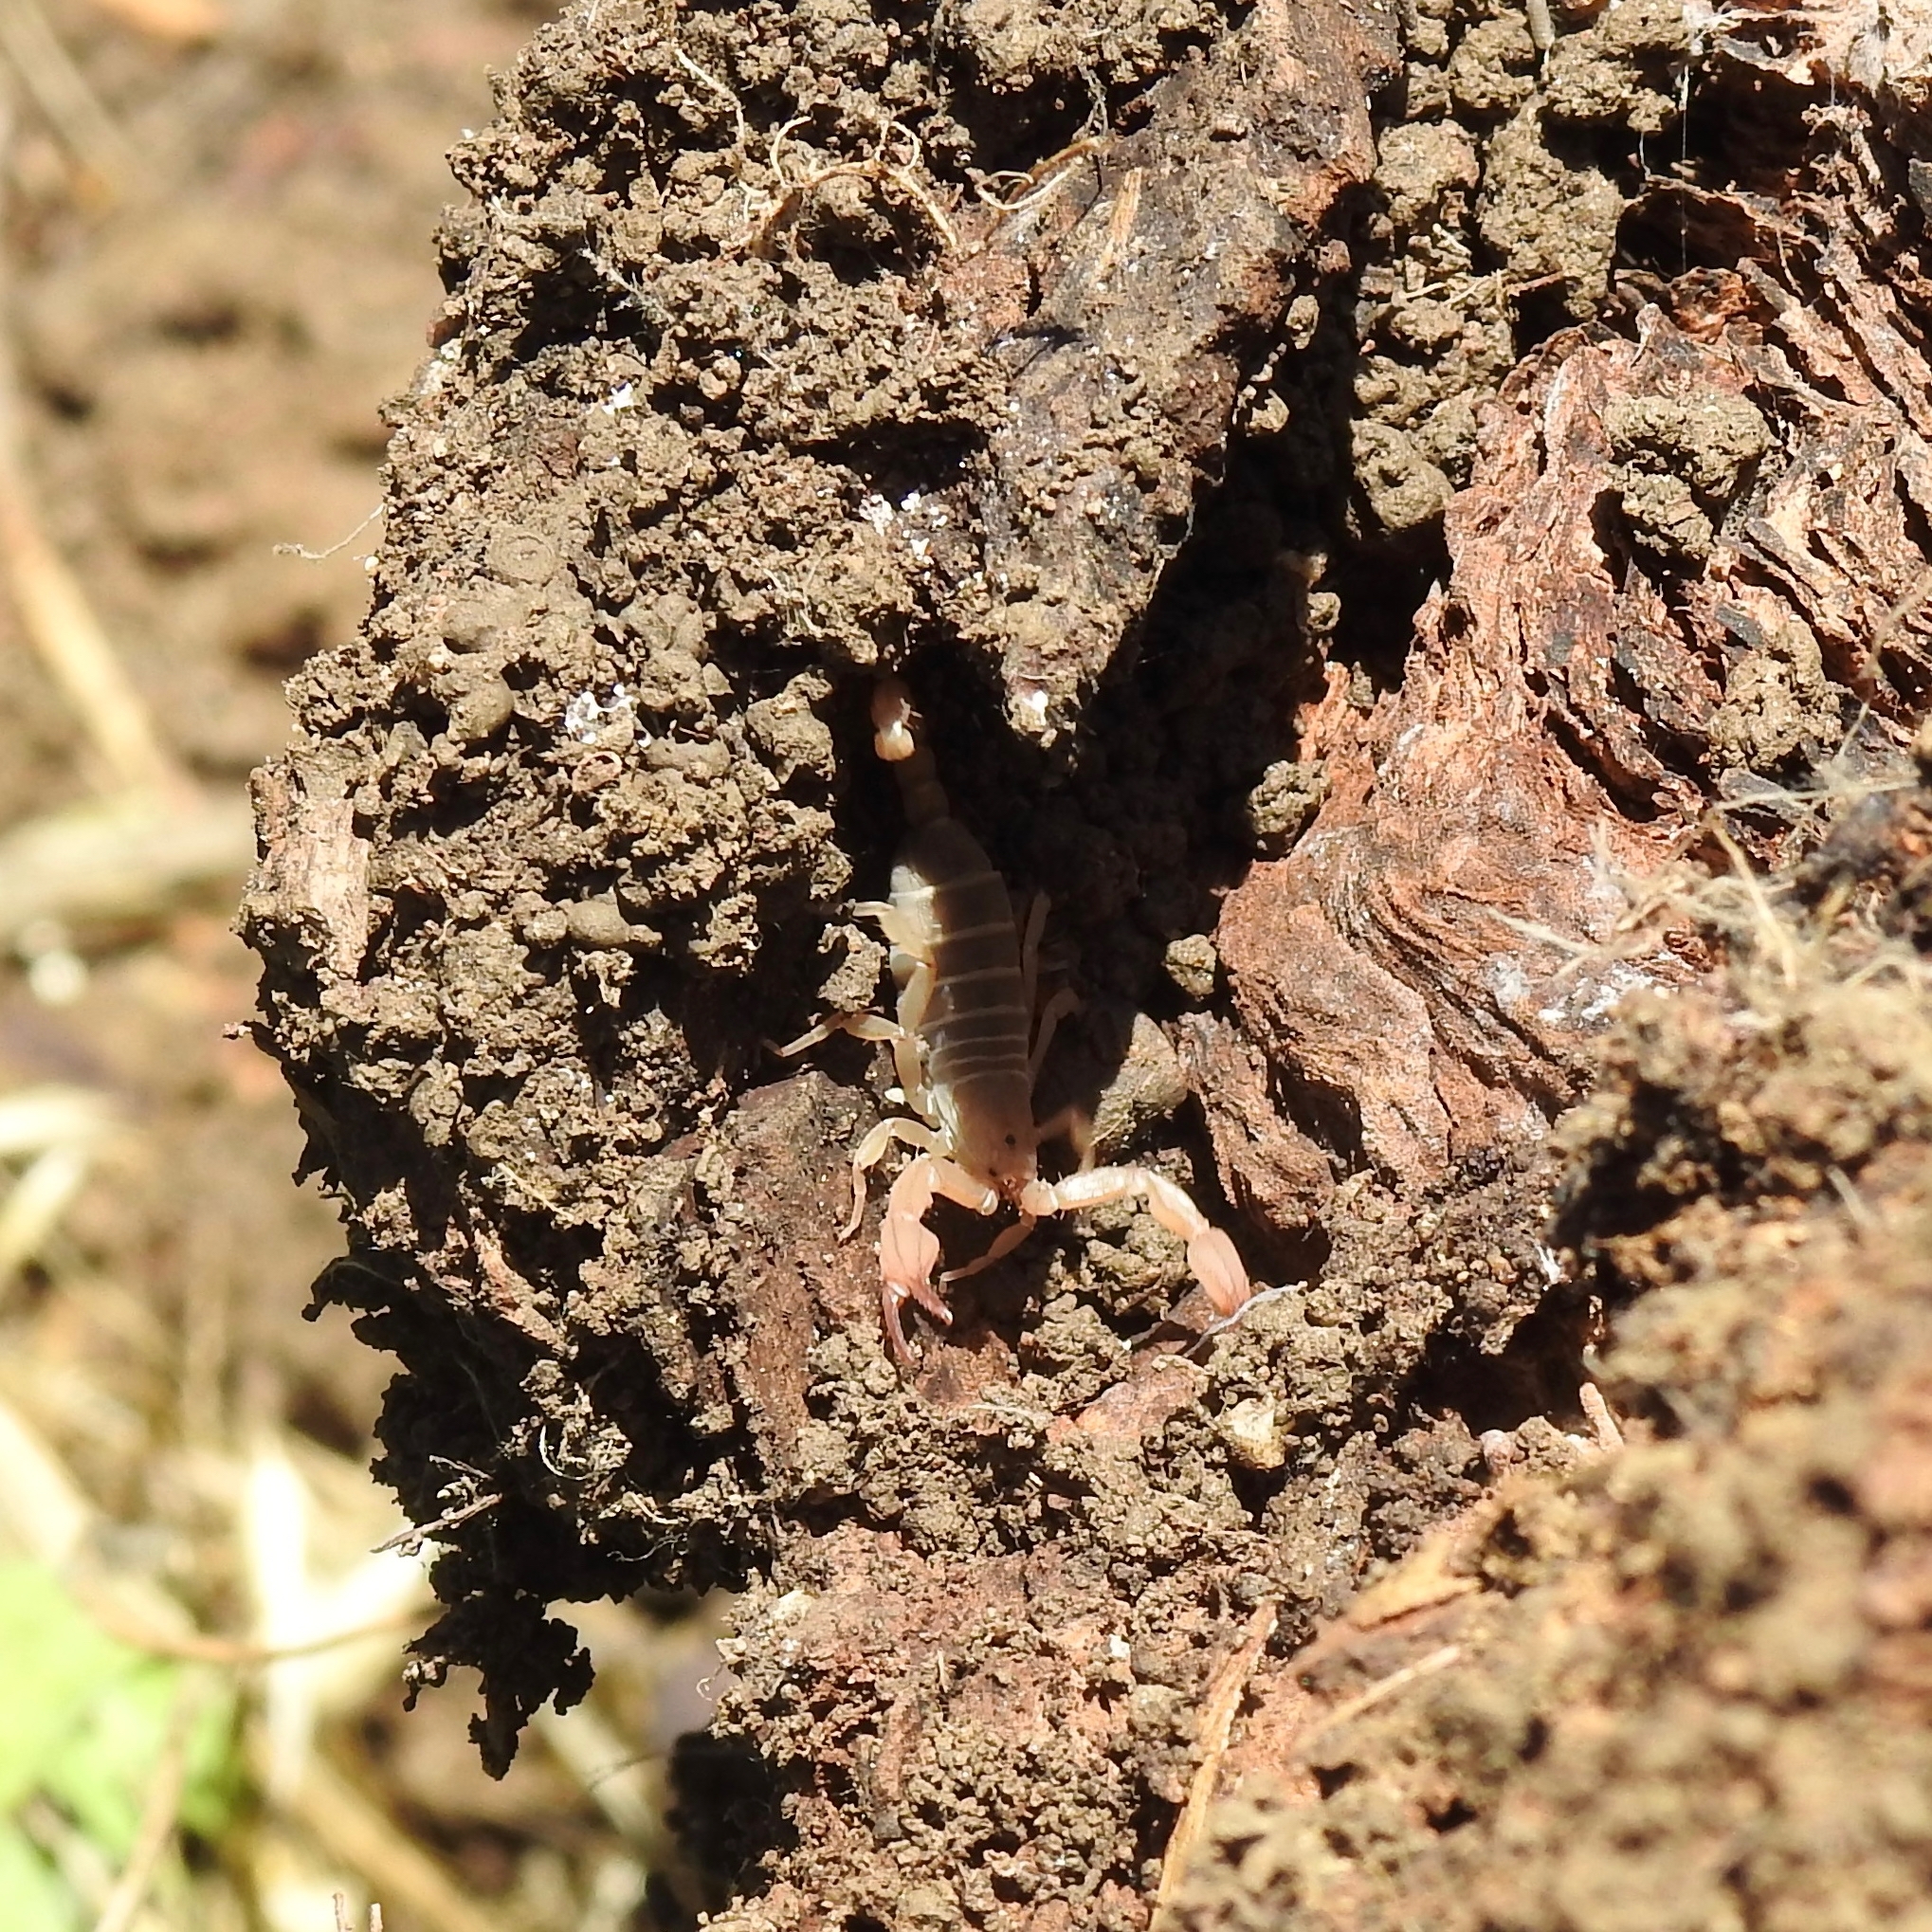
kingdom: Animalia
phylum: Arthropoda
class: Arachnida
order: Scorpiones
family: Vaejovidae
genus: Kovarikia
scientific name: Kovarikia angelena
